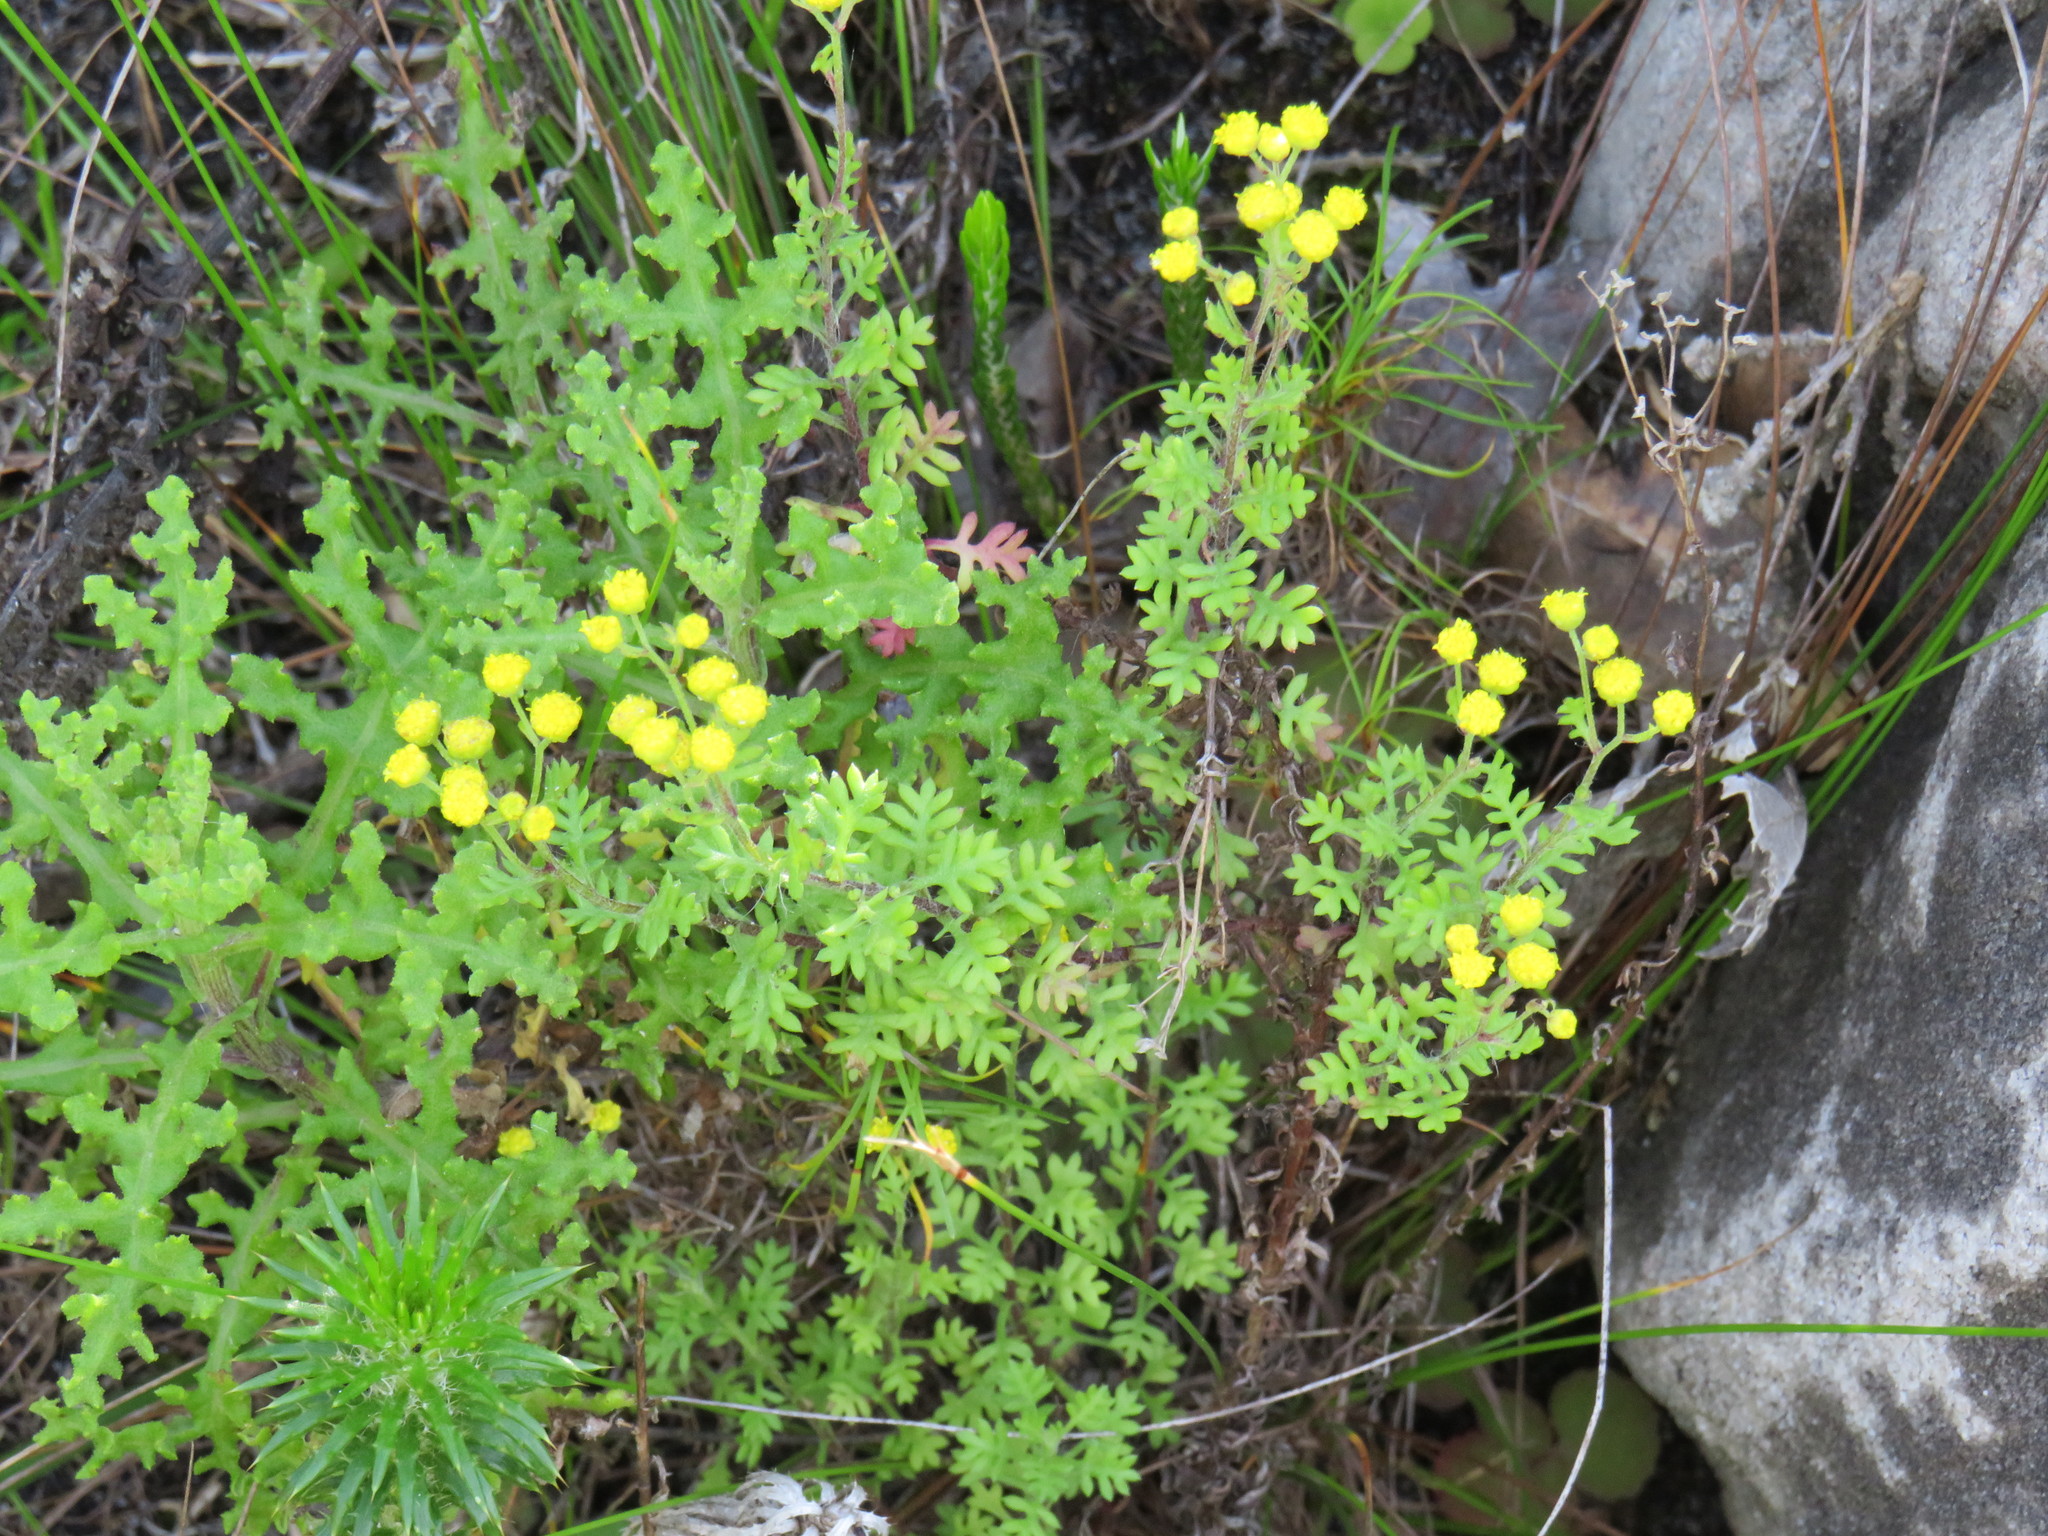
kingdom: Plantae
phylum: Tracheophyta
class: Magnoliopsida
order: Asterales
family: Asteraceae
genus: Hippia
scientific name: Hippia pilosa
